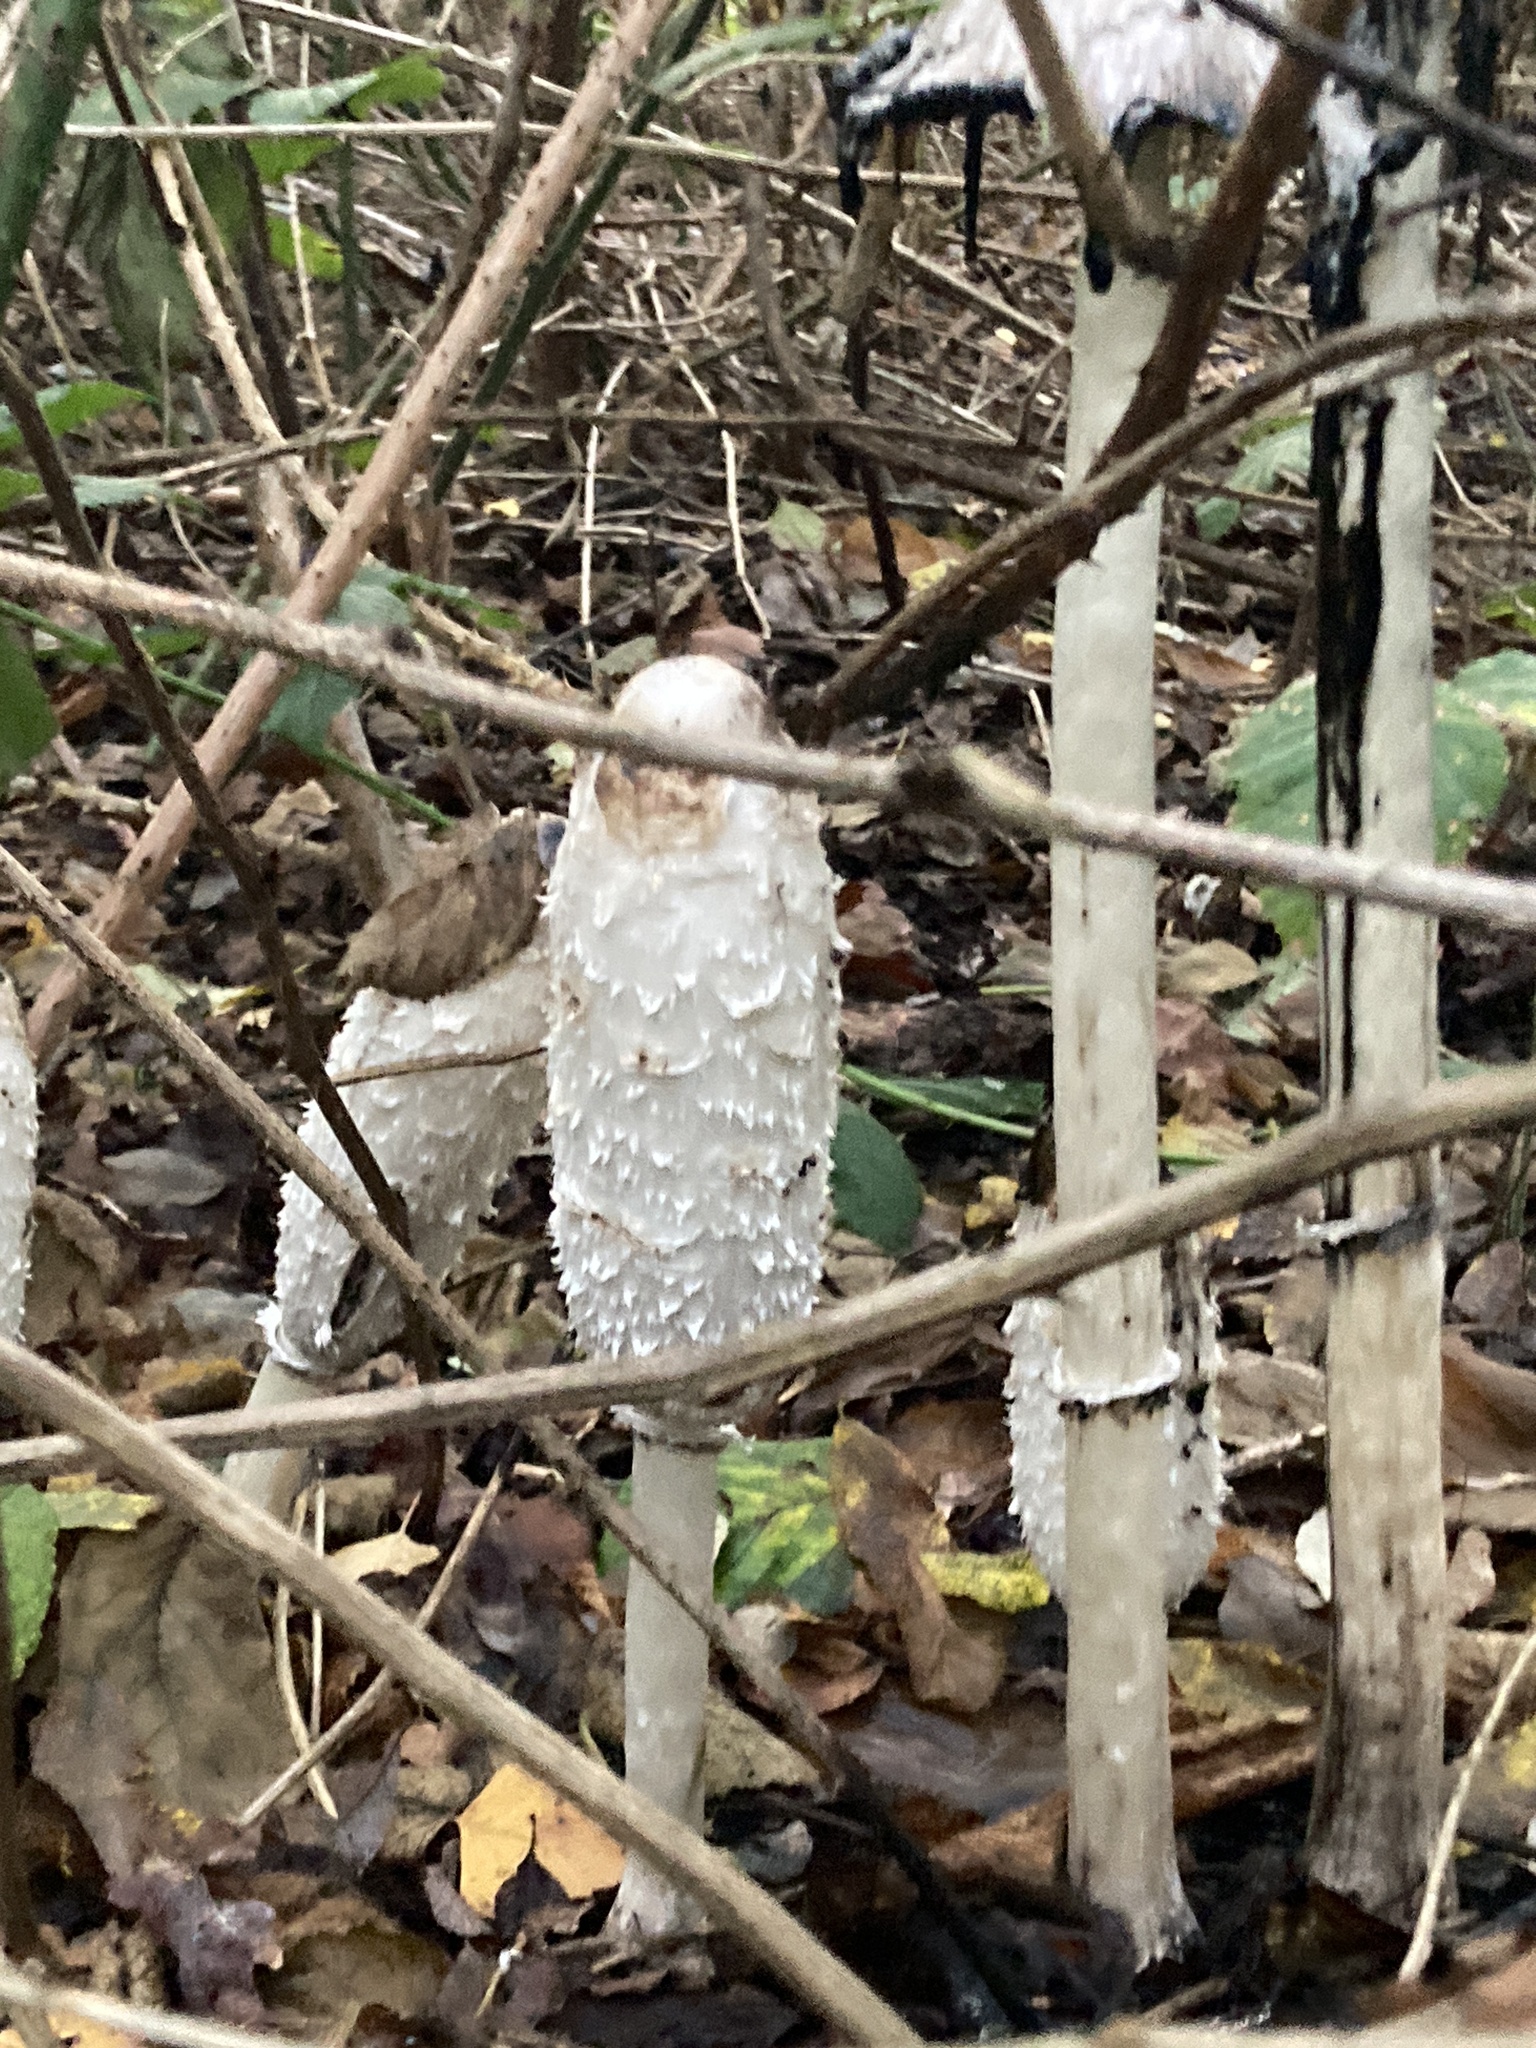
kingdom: Fungi
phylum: Basidiomycota
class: Agaricomycetes
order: Agaricales
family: Agaricaceae
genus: Coprinus
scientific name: Coprinus comatus
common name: Lawyer's wig
